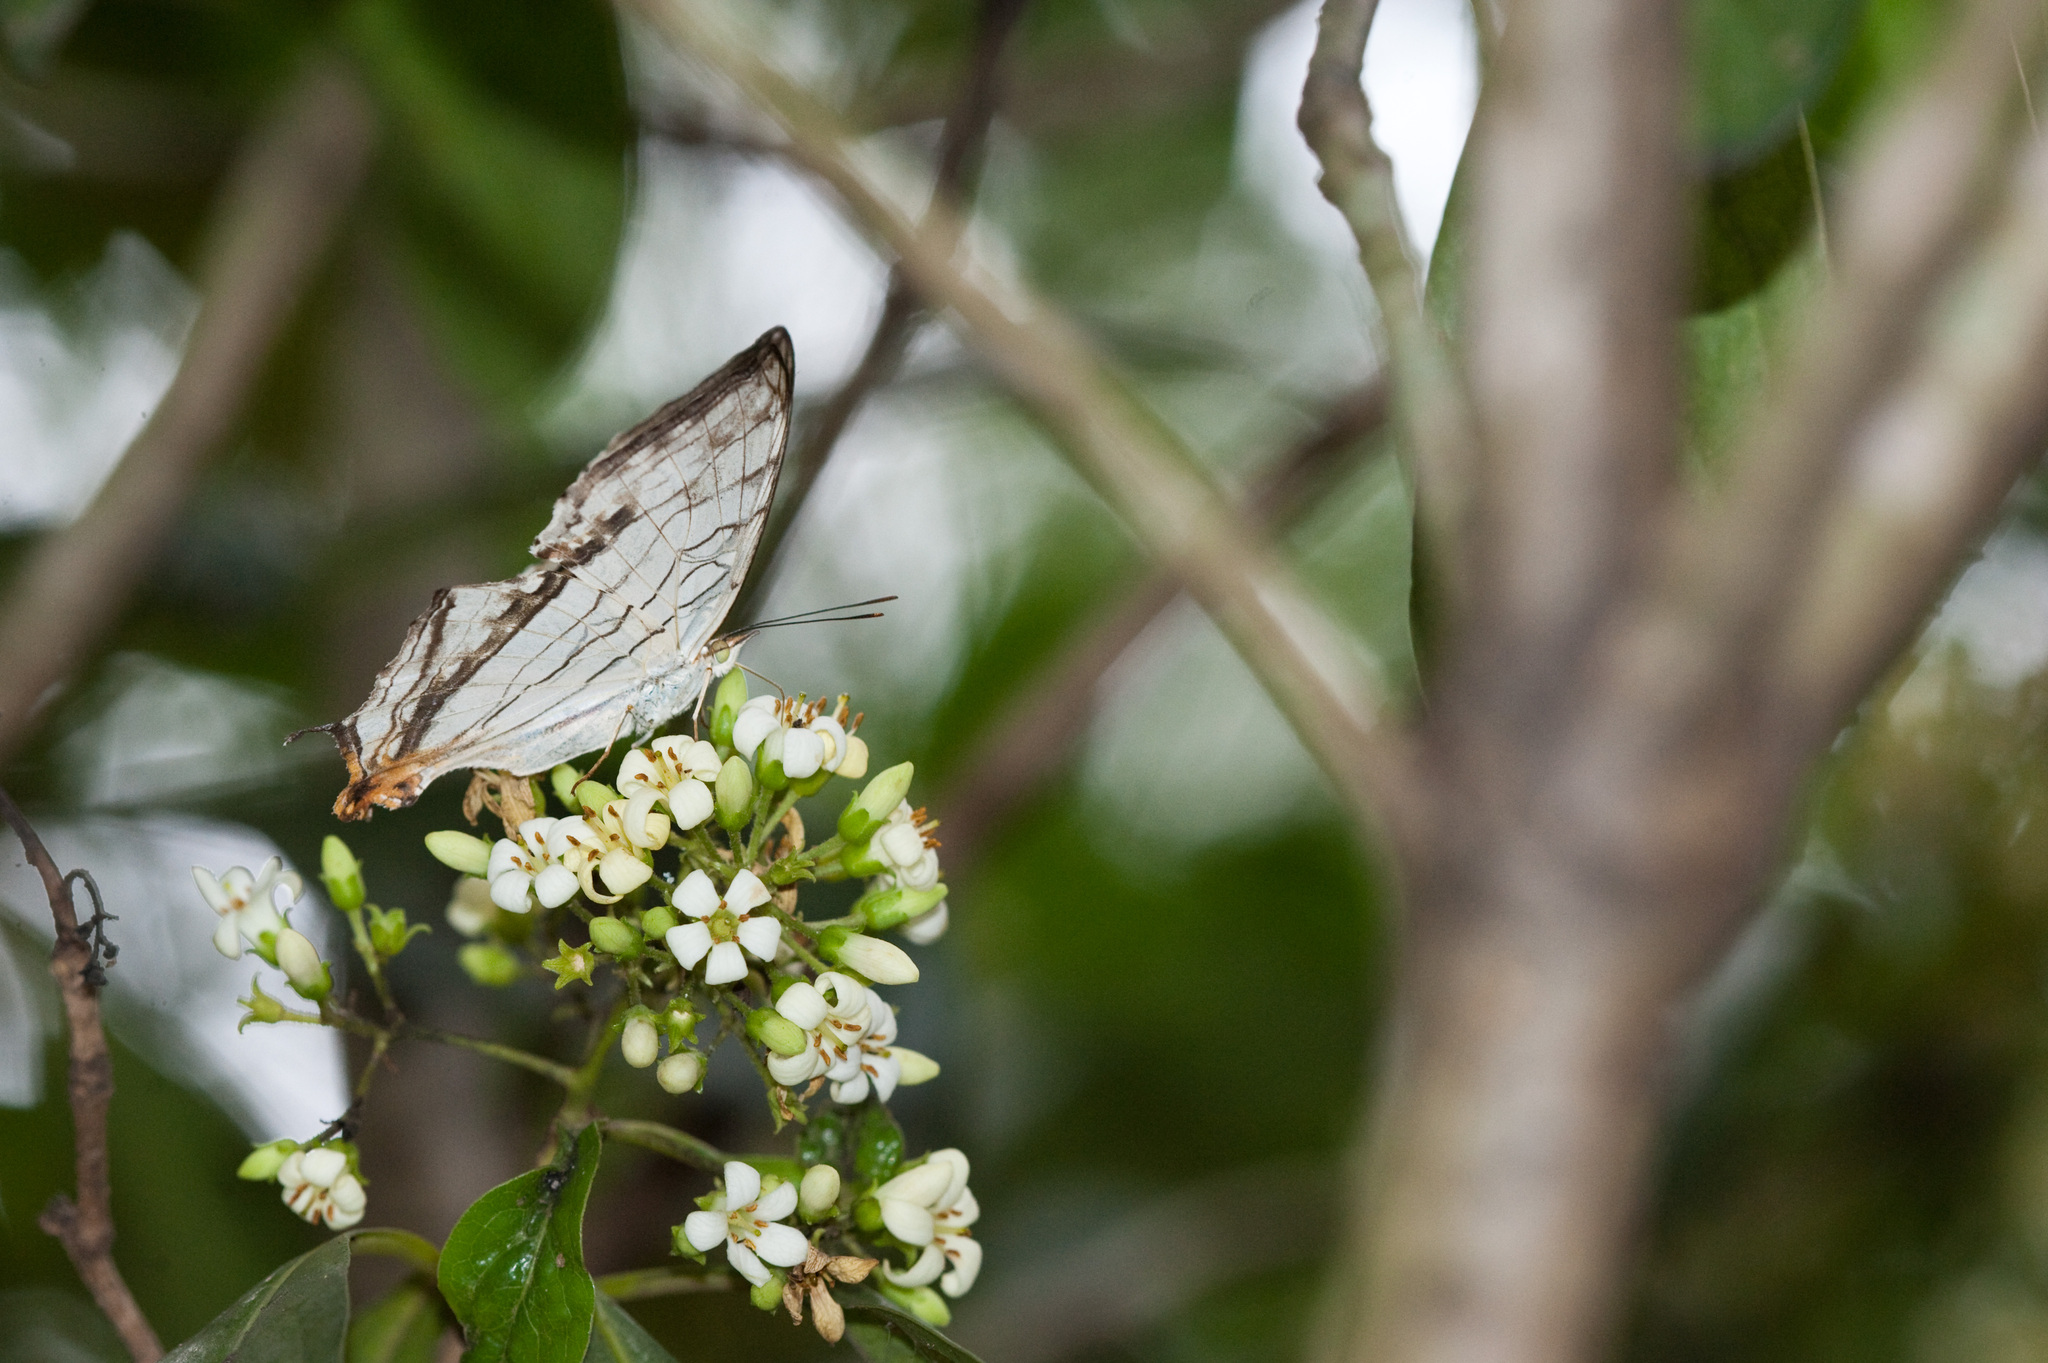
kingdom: Animalia
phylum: Arthropoda
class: Insecta
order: Lepidoptera
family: Nymphalidae
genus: Cyrestis
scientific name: Cyrestis thyodamas
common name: Common mapwing
